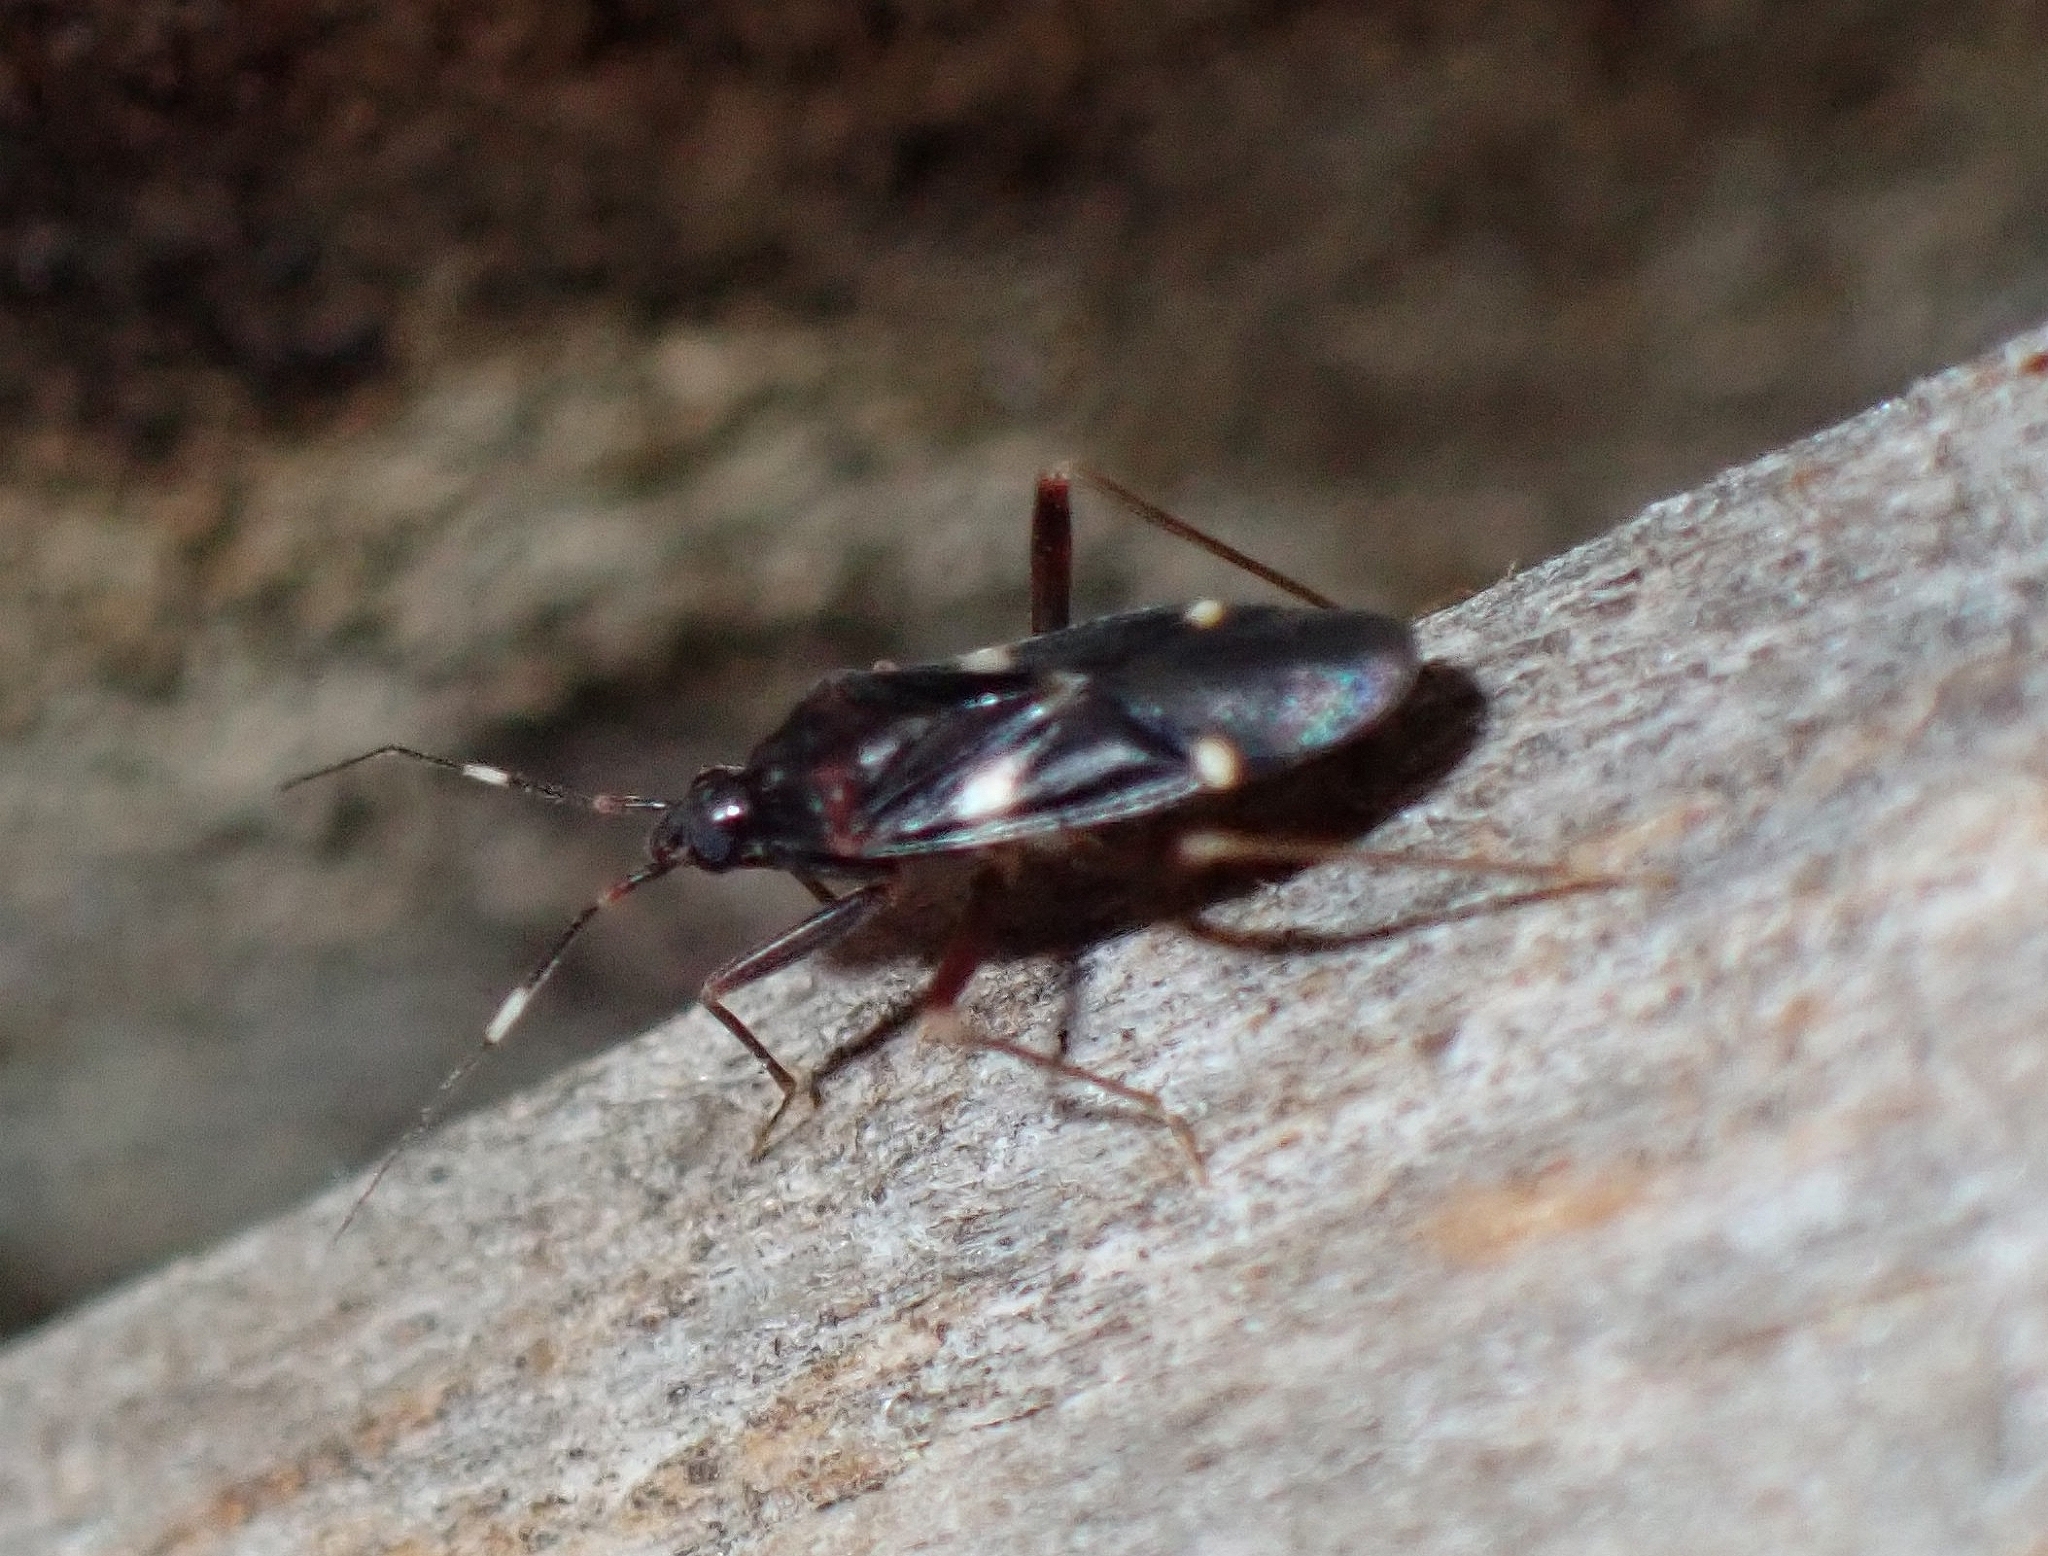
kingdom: Animalia
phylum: Arthropoda
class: Insecta
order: Hemiptera
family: Miridae
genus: Fulvius
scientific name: Fulvius borgesi
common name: Capsid bug
